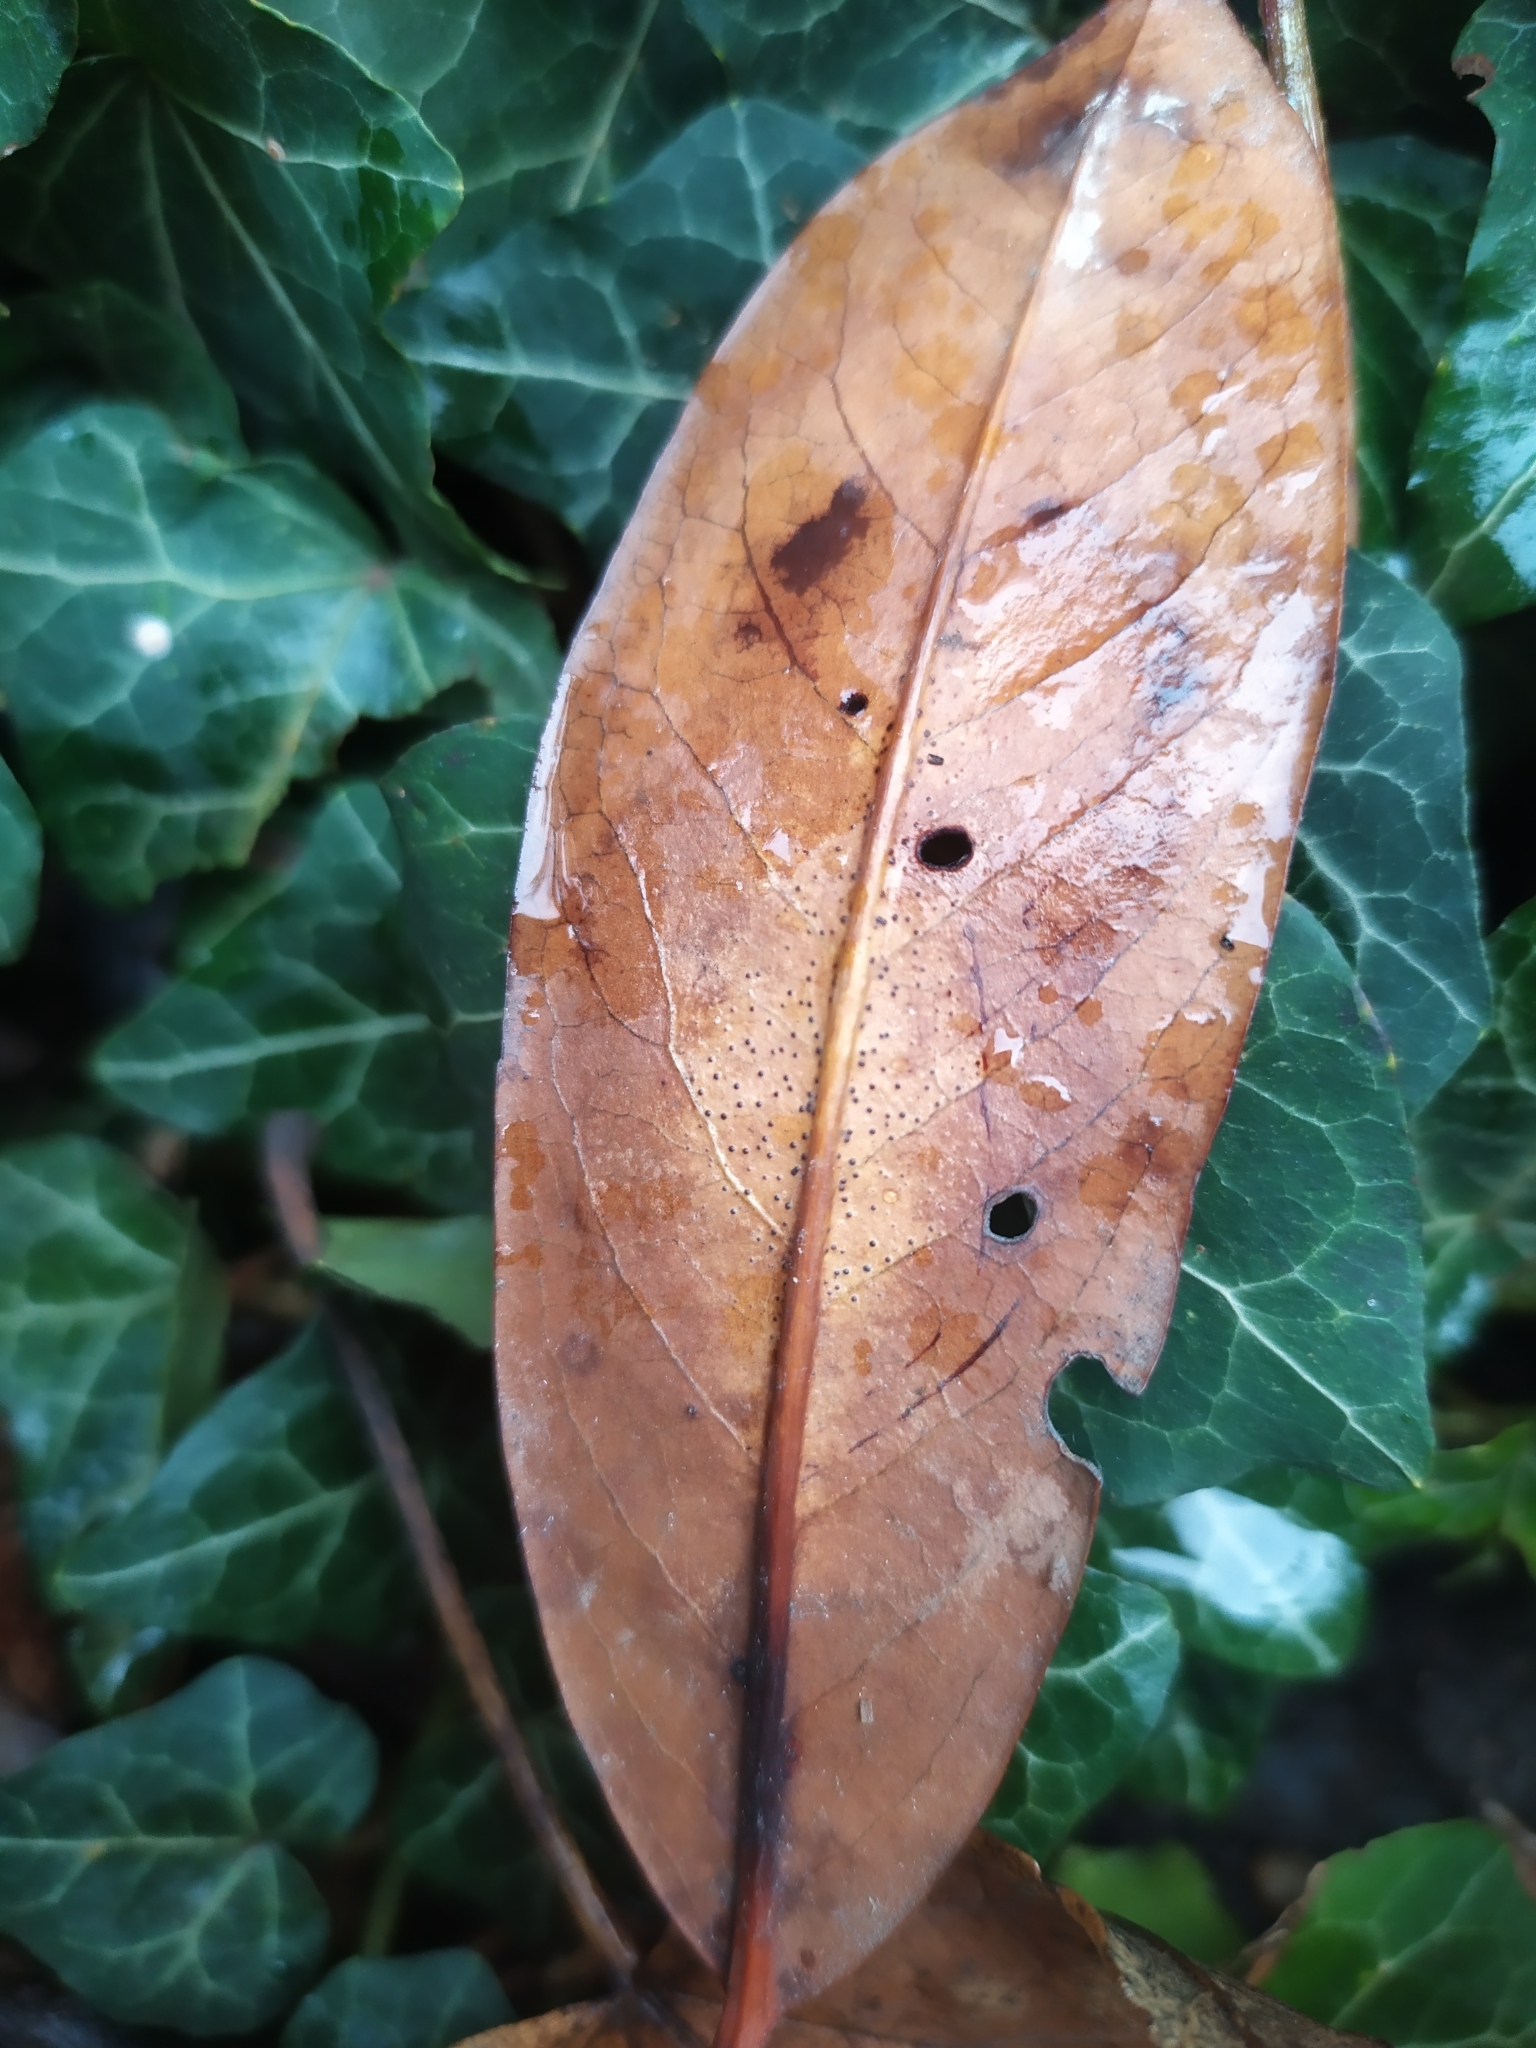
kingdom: Fungi
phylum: Ascomycota
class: Leotiomycetes
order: Helotiales
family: Cenangiaceae
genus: Trochila
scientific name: Trochila laurocerasi
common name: Laurel speckle
